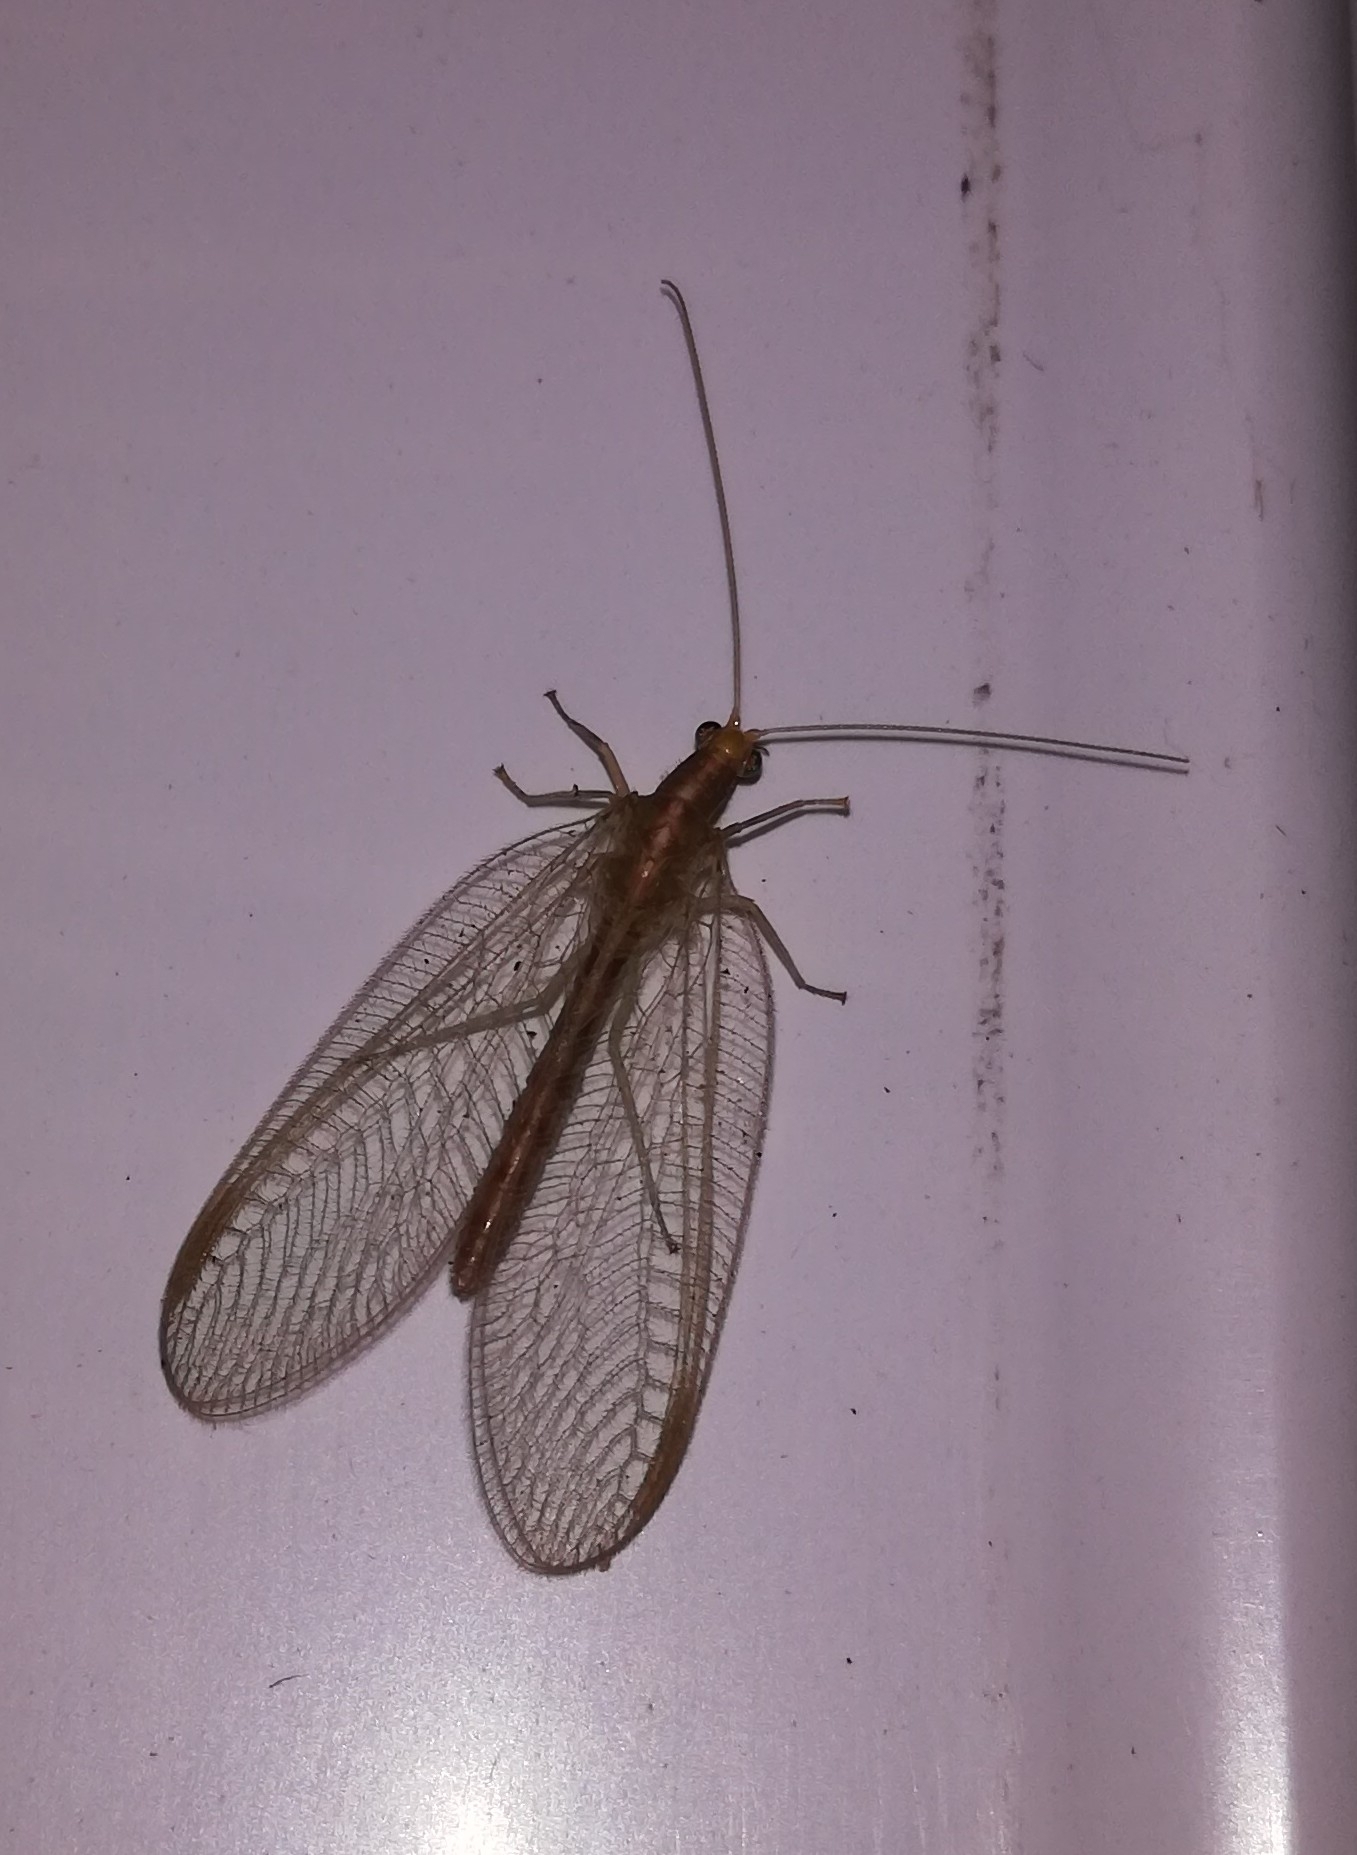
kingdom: Animalia
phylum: Arthropoda
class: Insecta
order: Neuroptera
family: Chrysopidae
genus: Chrysoperla
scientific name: Chrysoperla
